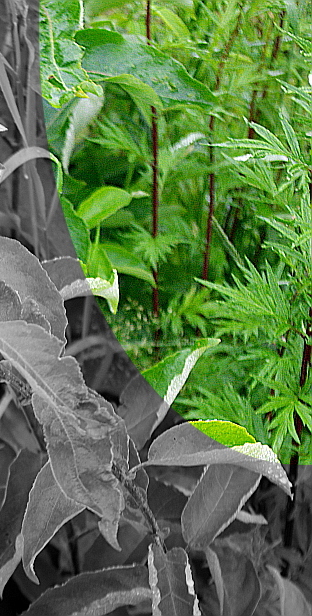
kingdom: Plantae
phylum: Tracheophyta
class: Magnoliopsida
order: Asterales
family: Asteraceae
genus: Artemisia
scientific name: Artemisia vulgaris
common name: Mugwort
